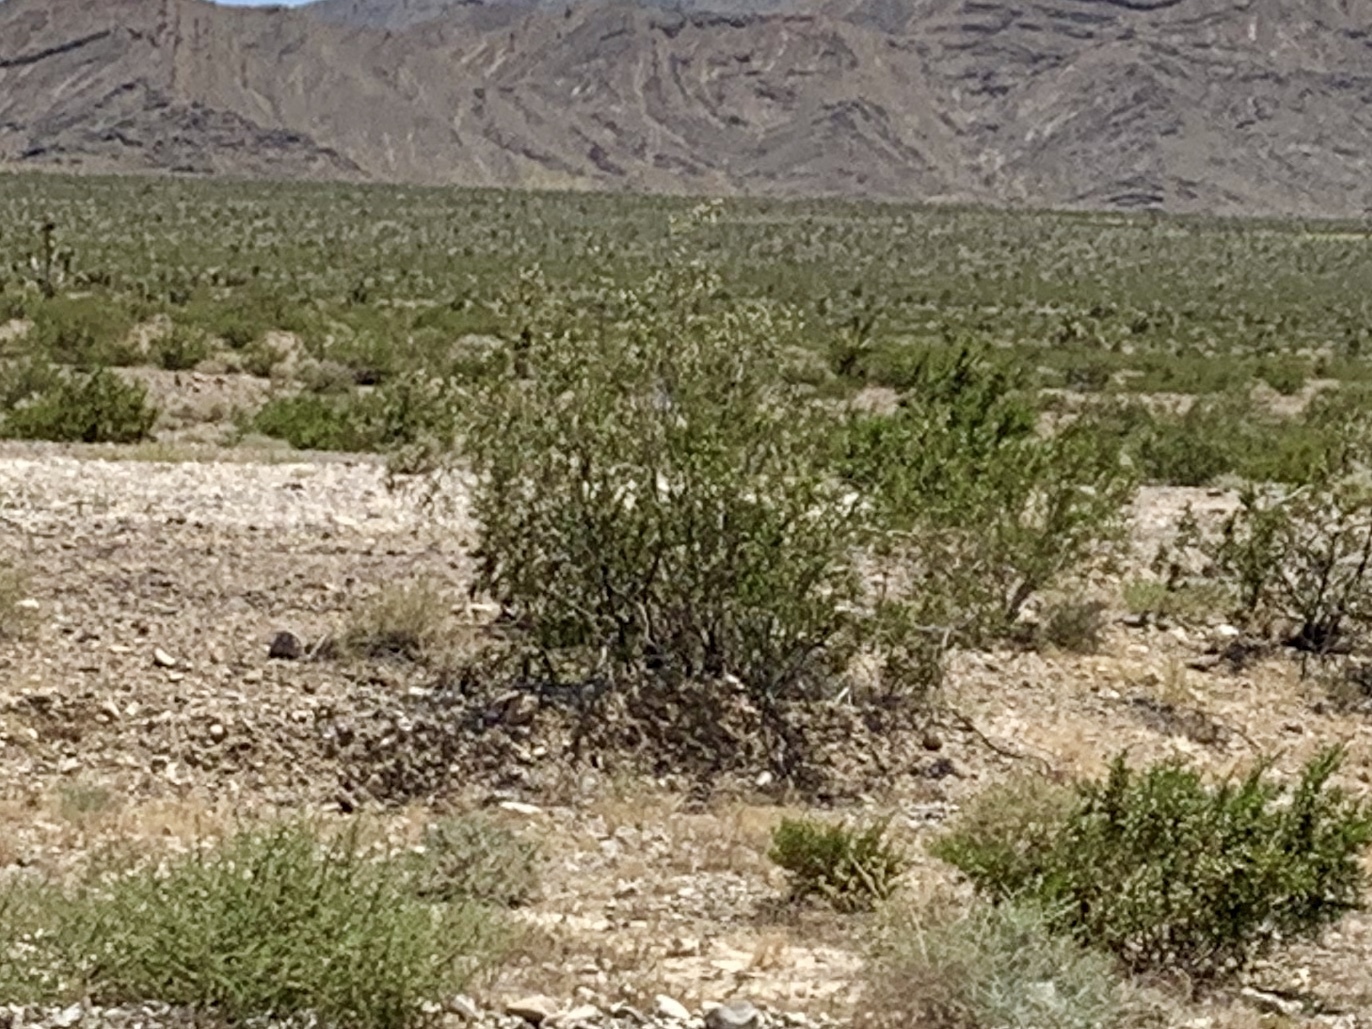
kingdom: Plantae
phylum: Tracheophyta
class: Magnoliopsida
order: Zygophyllales
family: Zygophyllaceae
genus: Larrea
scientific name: Larrea tridentata
